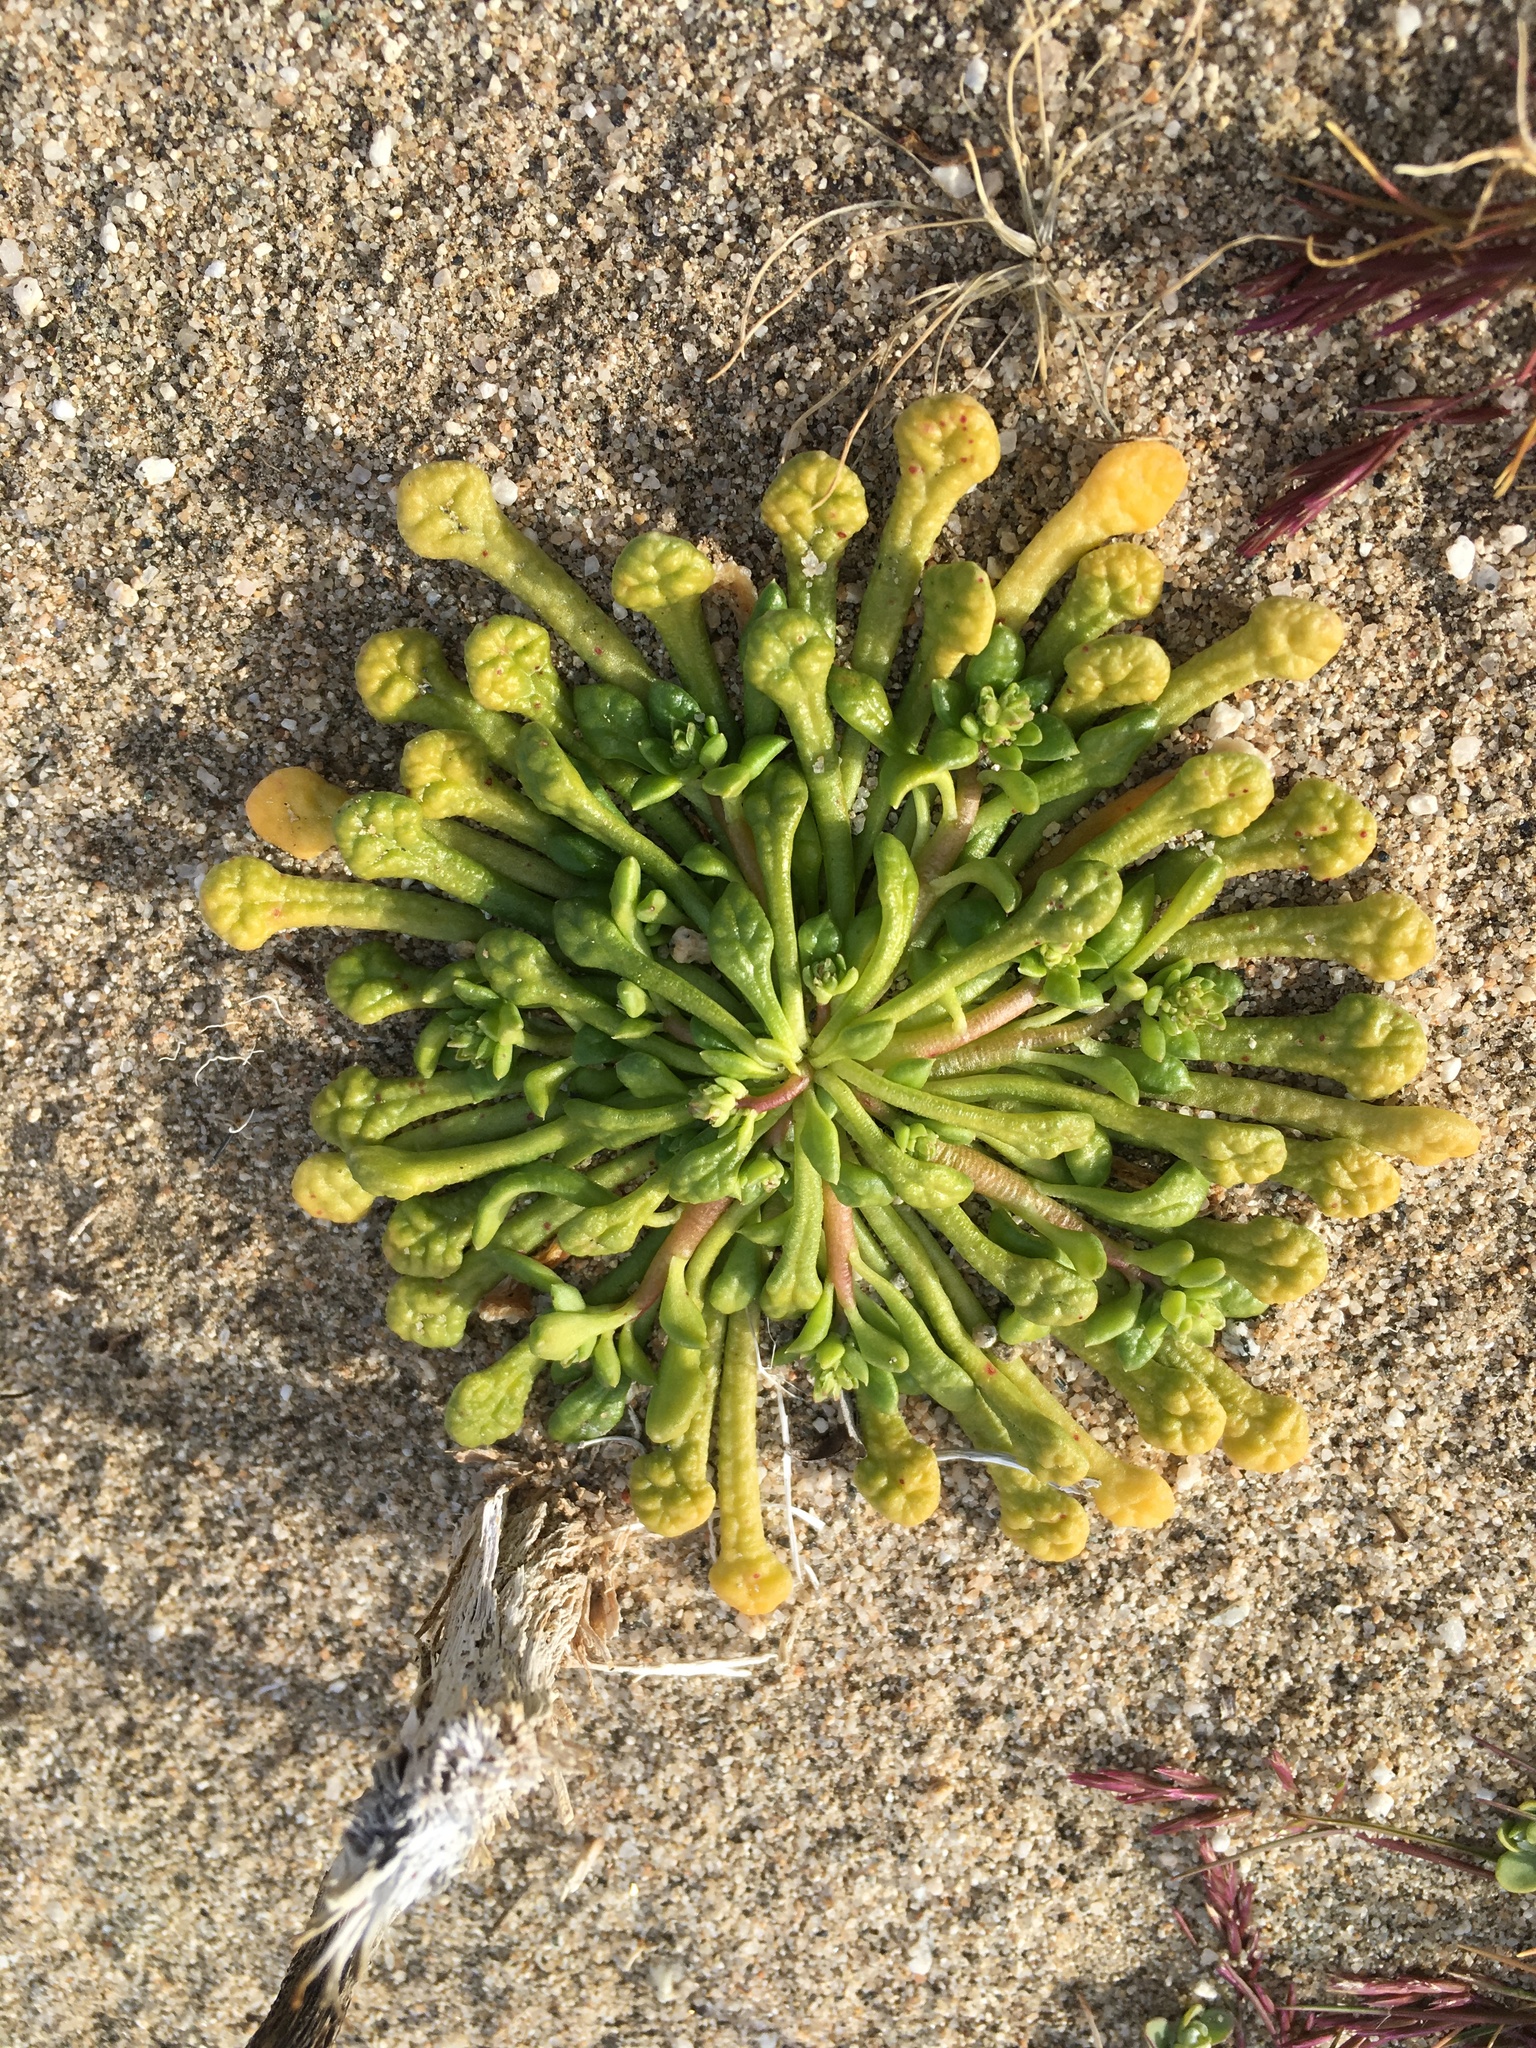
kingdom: Plantae
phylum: Tracheophyta
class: Magnoliopsida
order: Caryophyllales
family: Montiaceae
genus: Calyptridium
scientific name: Calyptridium monandrum
